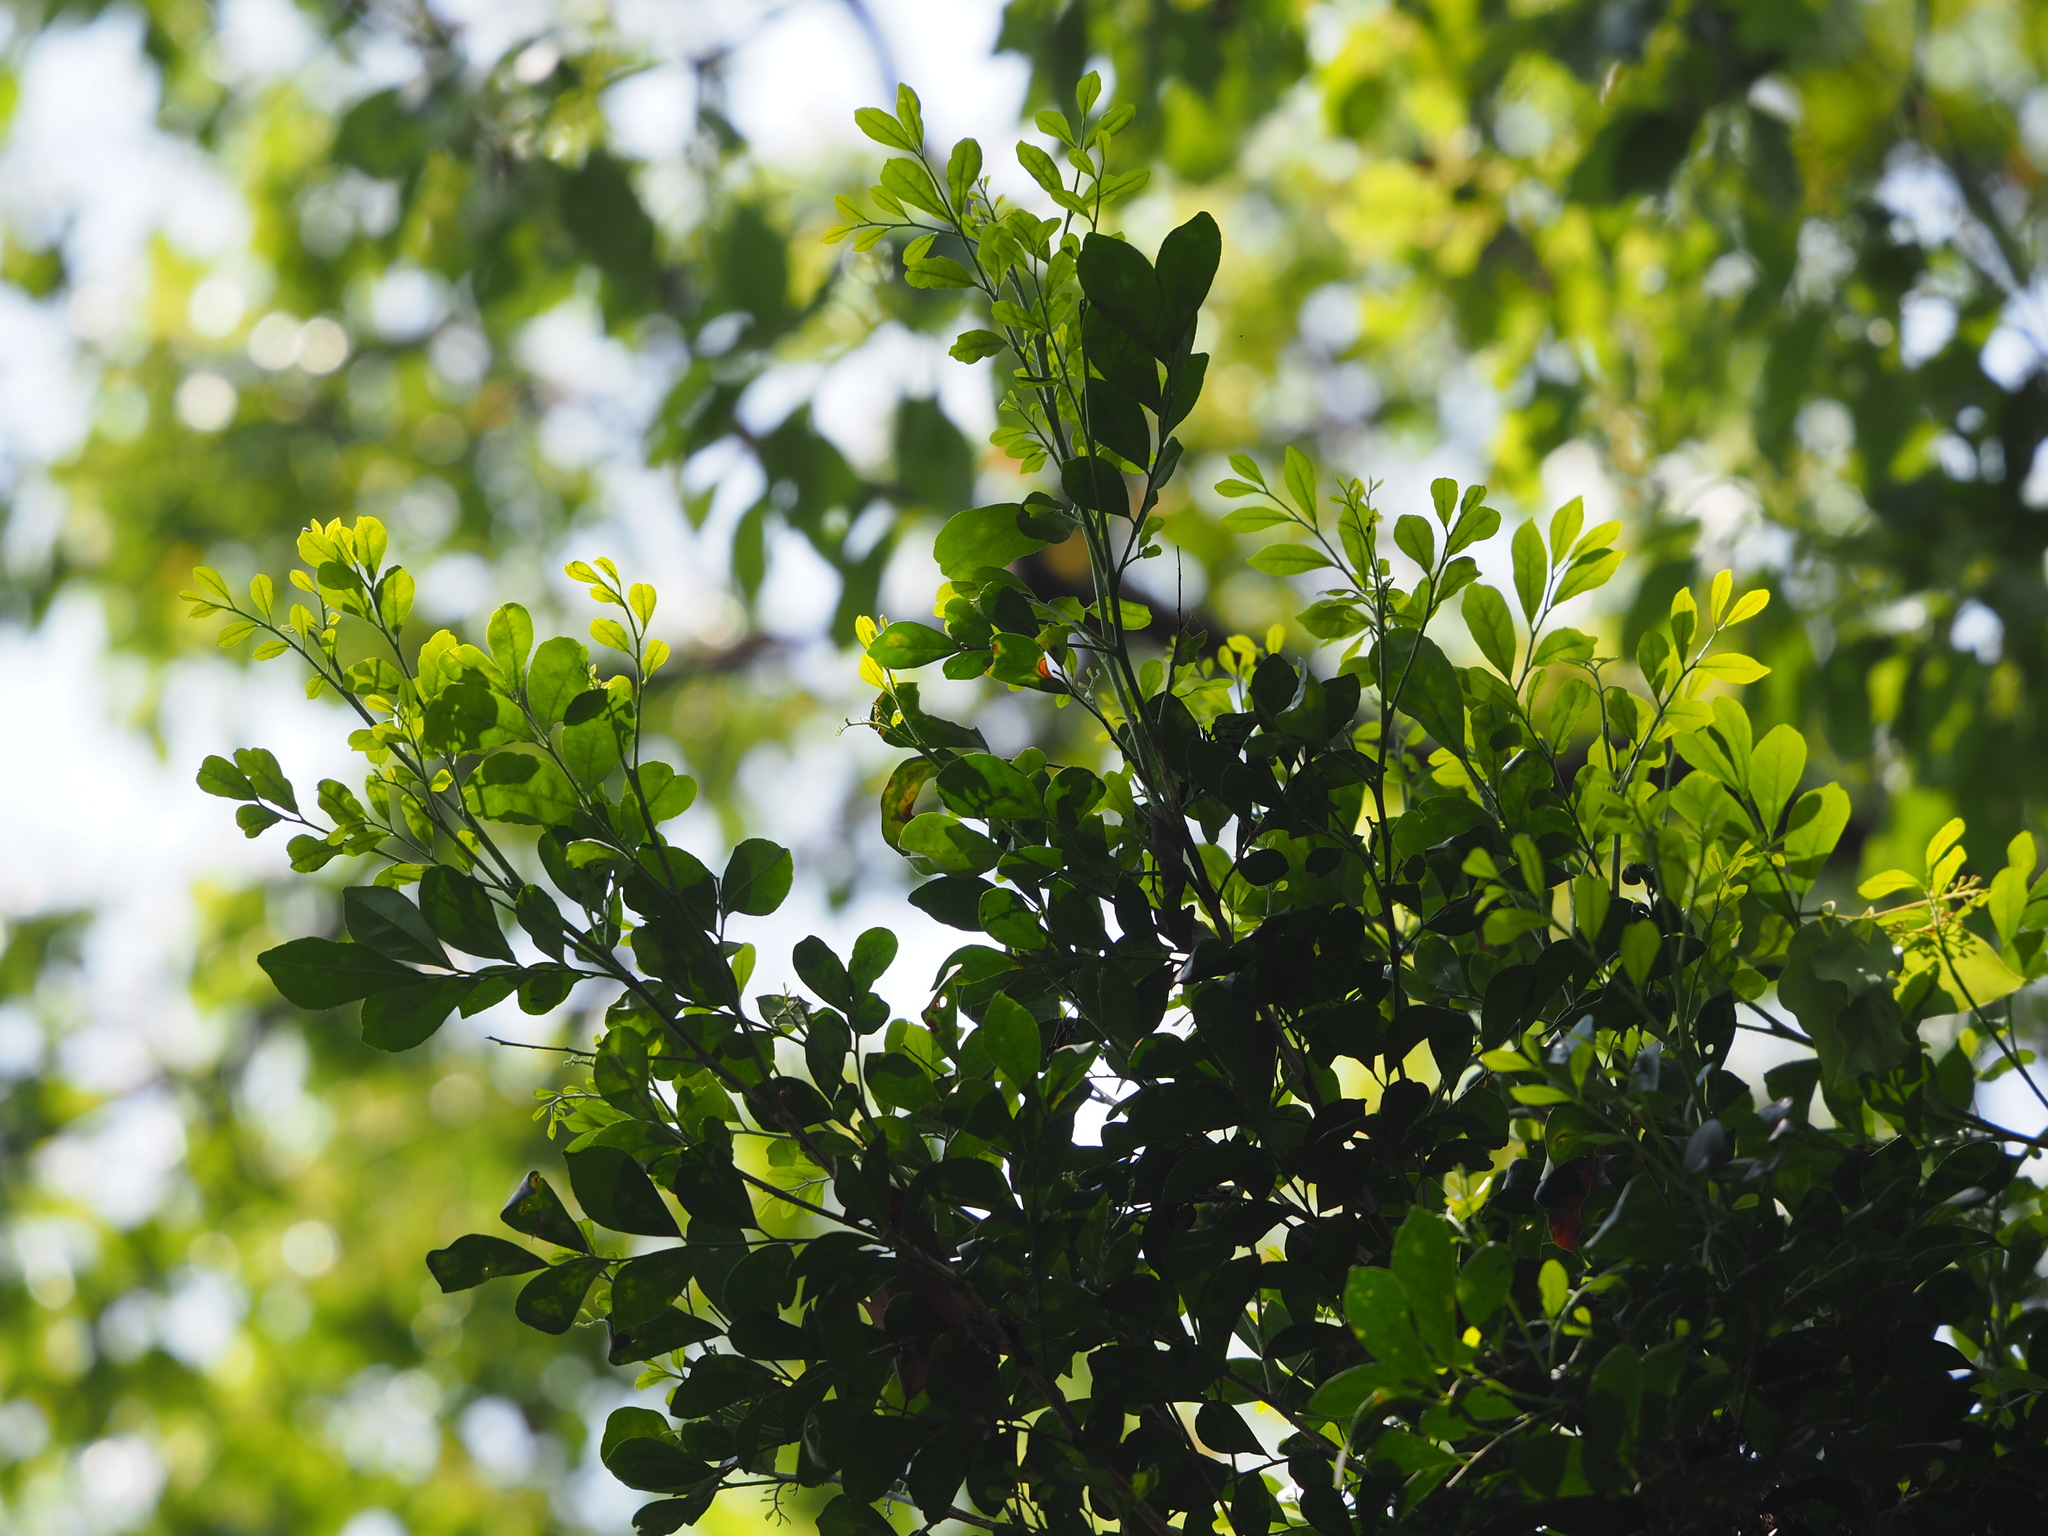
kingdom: Plantae
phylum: Tracheophyta
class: Magnoliopsida
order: Sapindales
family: Rutaceae
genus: Murraya
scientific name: Murraya paniculata
